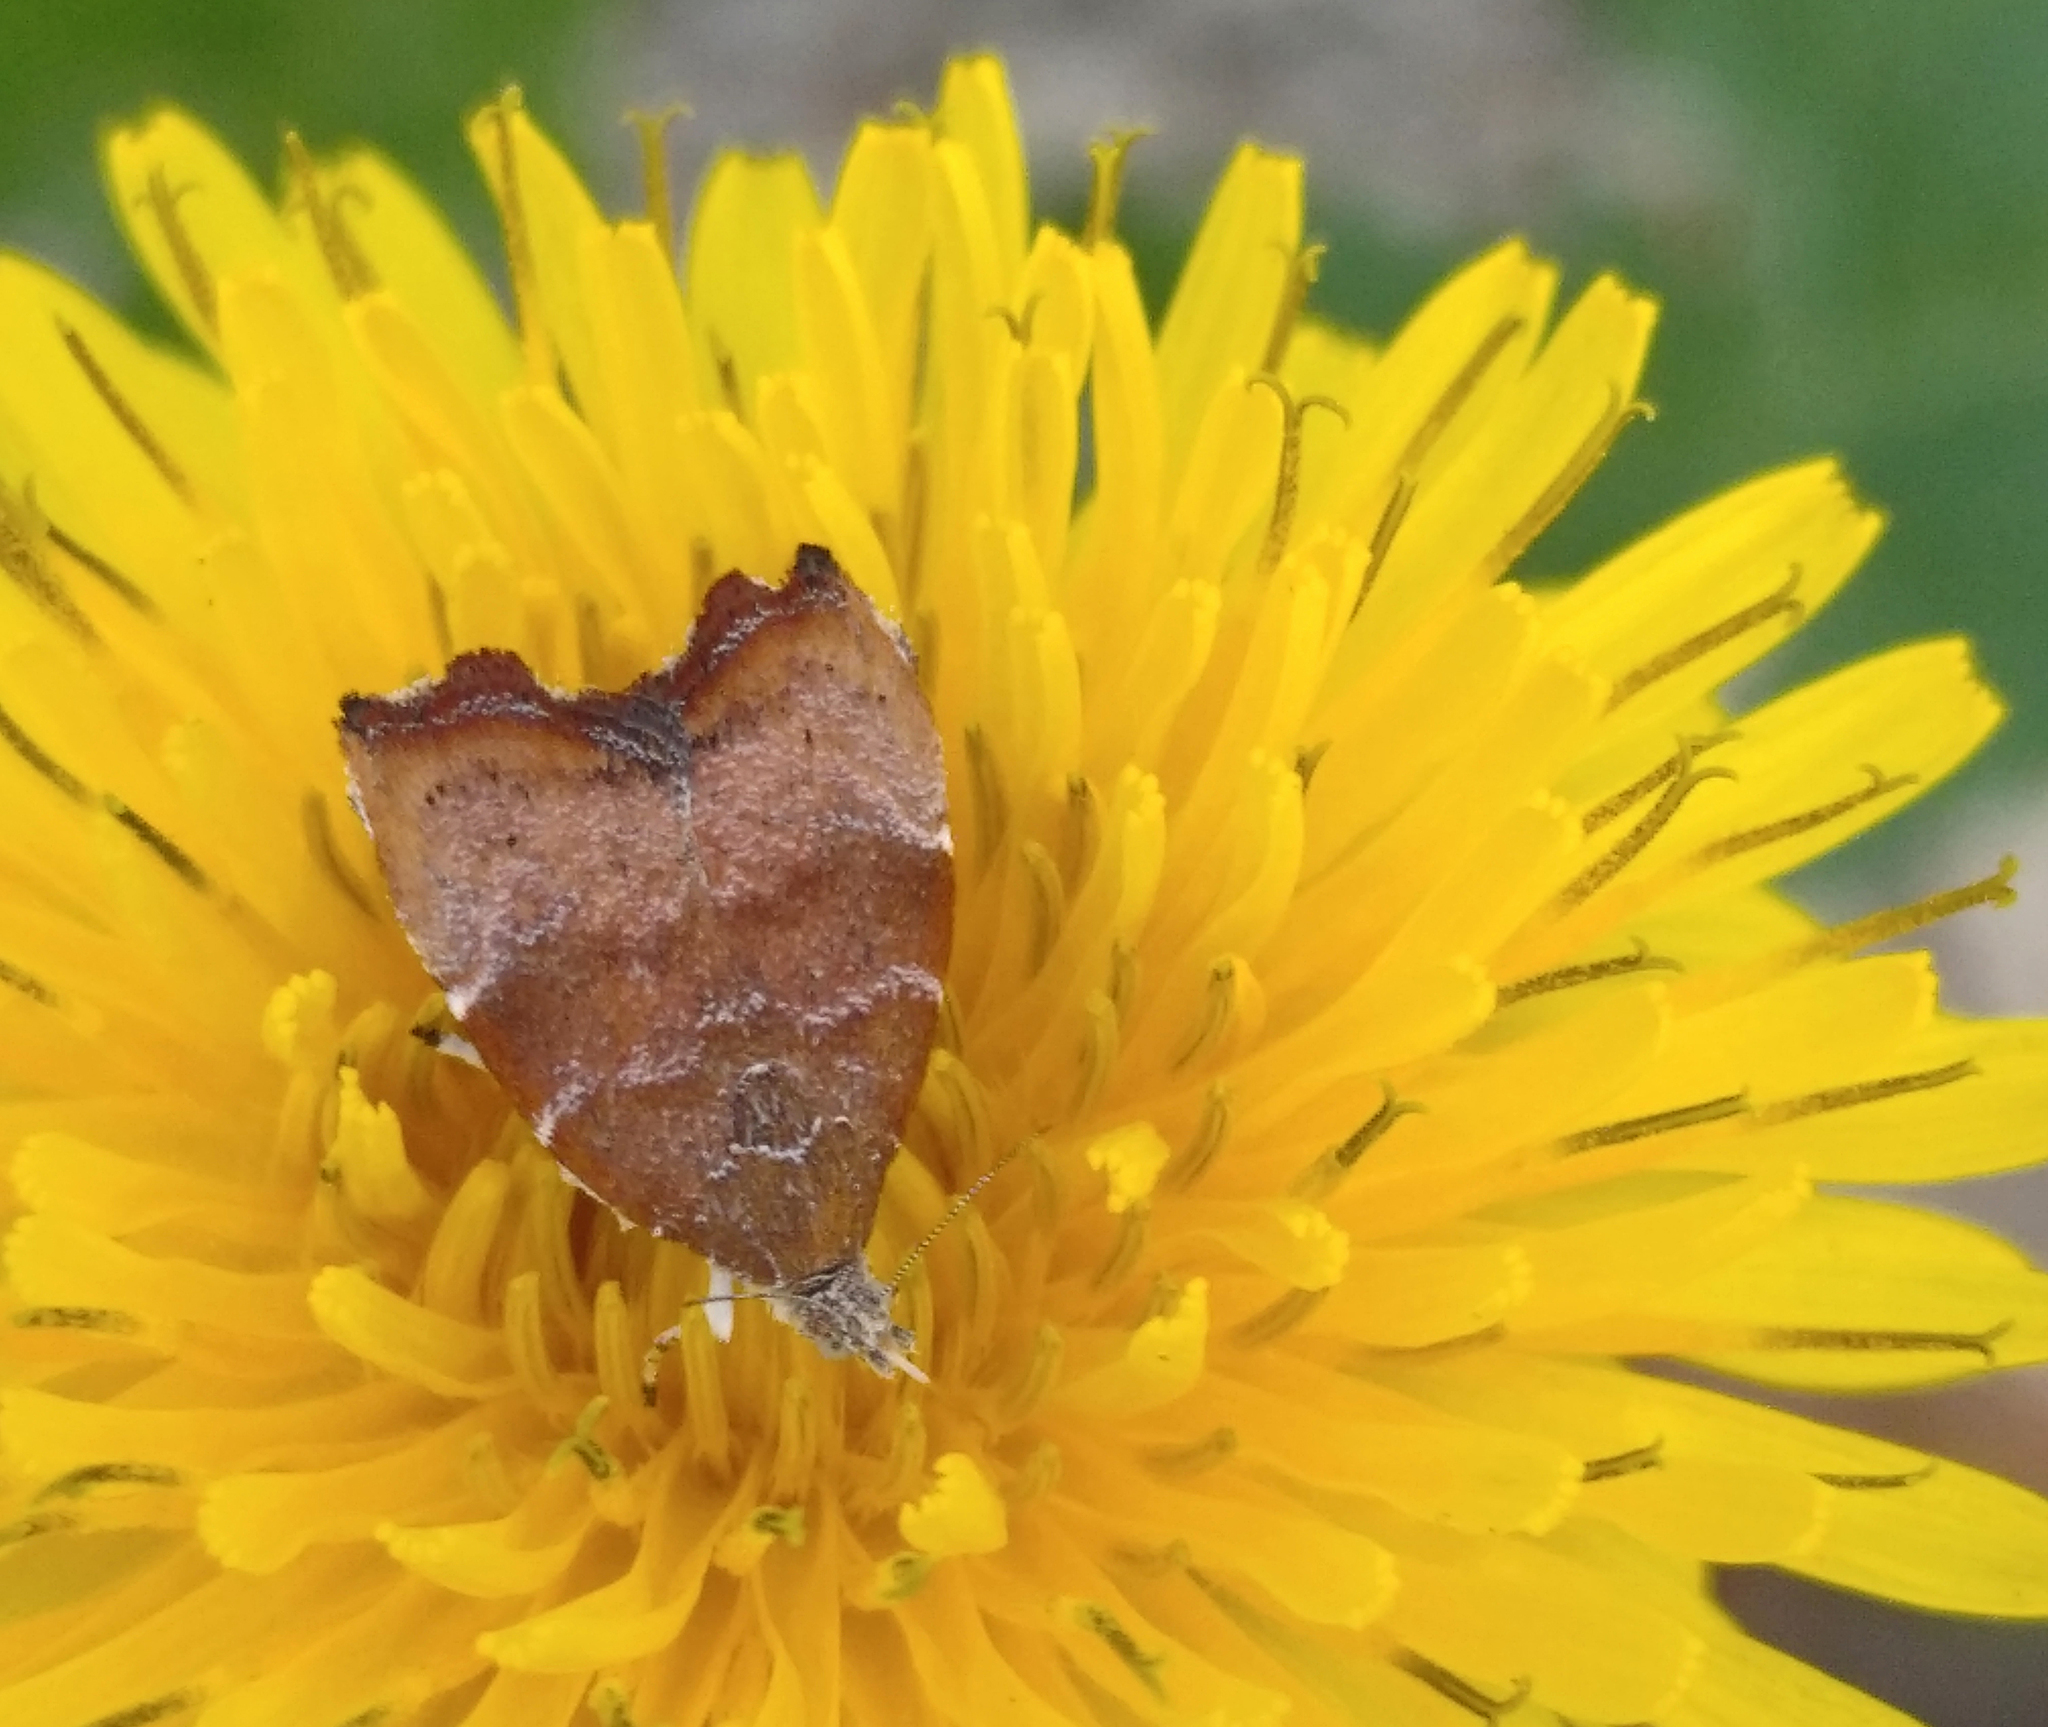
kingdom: Animalia
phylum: Arthropoda
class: Insecta
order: Lepidoptera
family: Choreutidae
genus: Anthophila
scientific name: Anthophila nemorana
